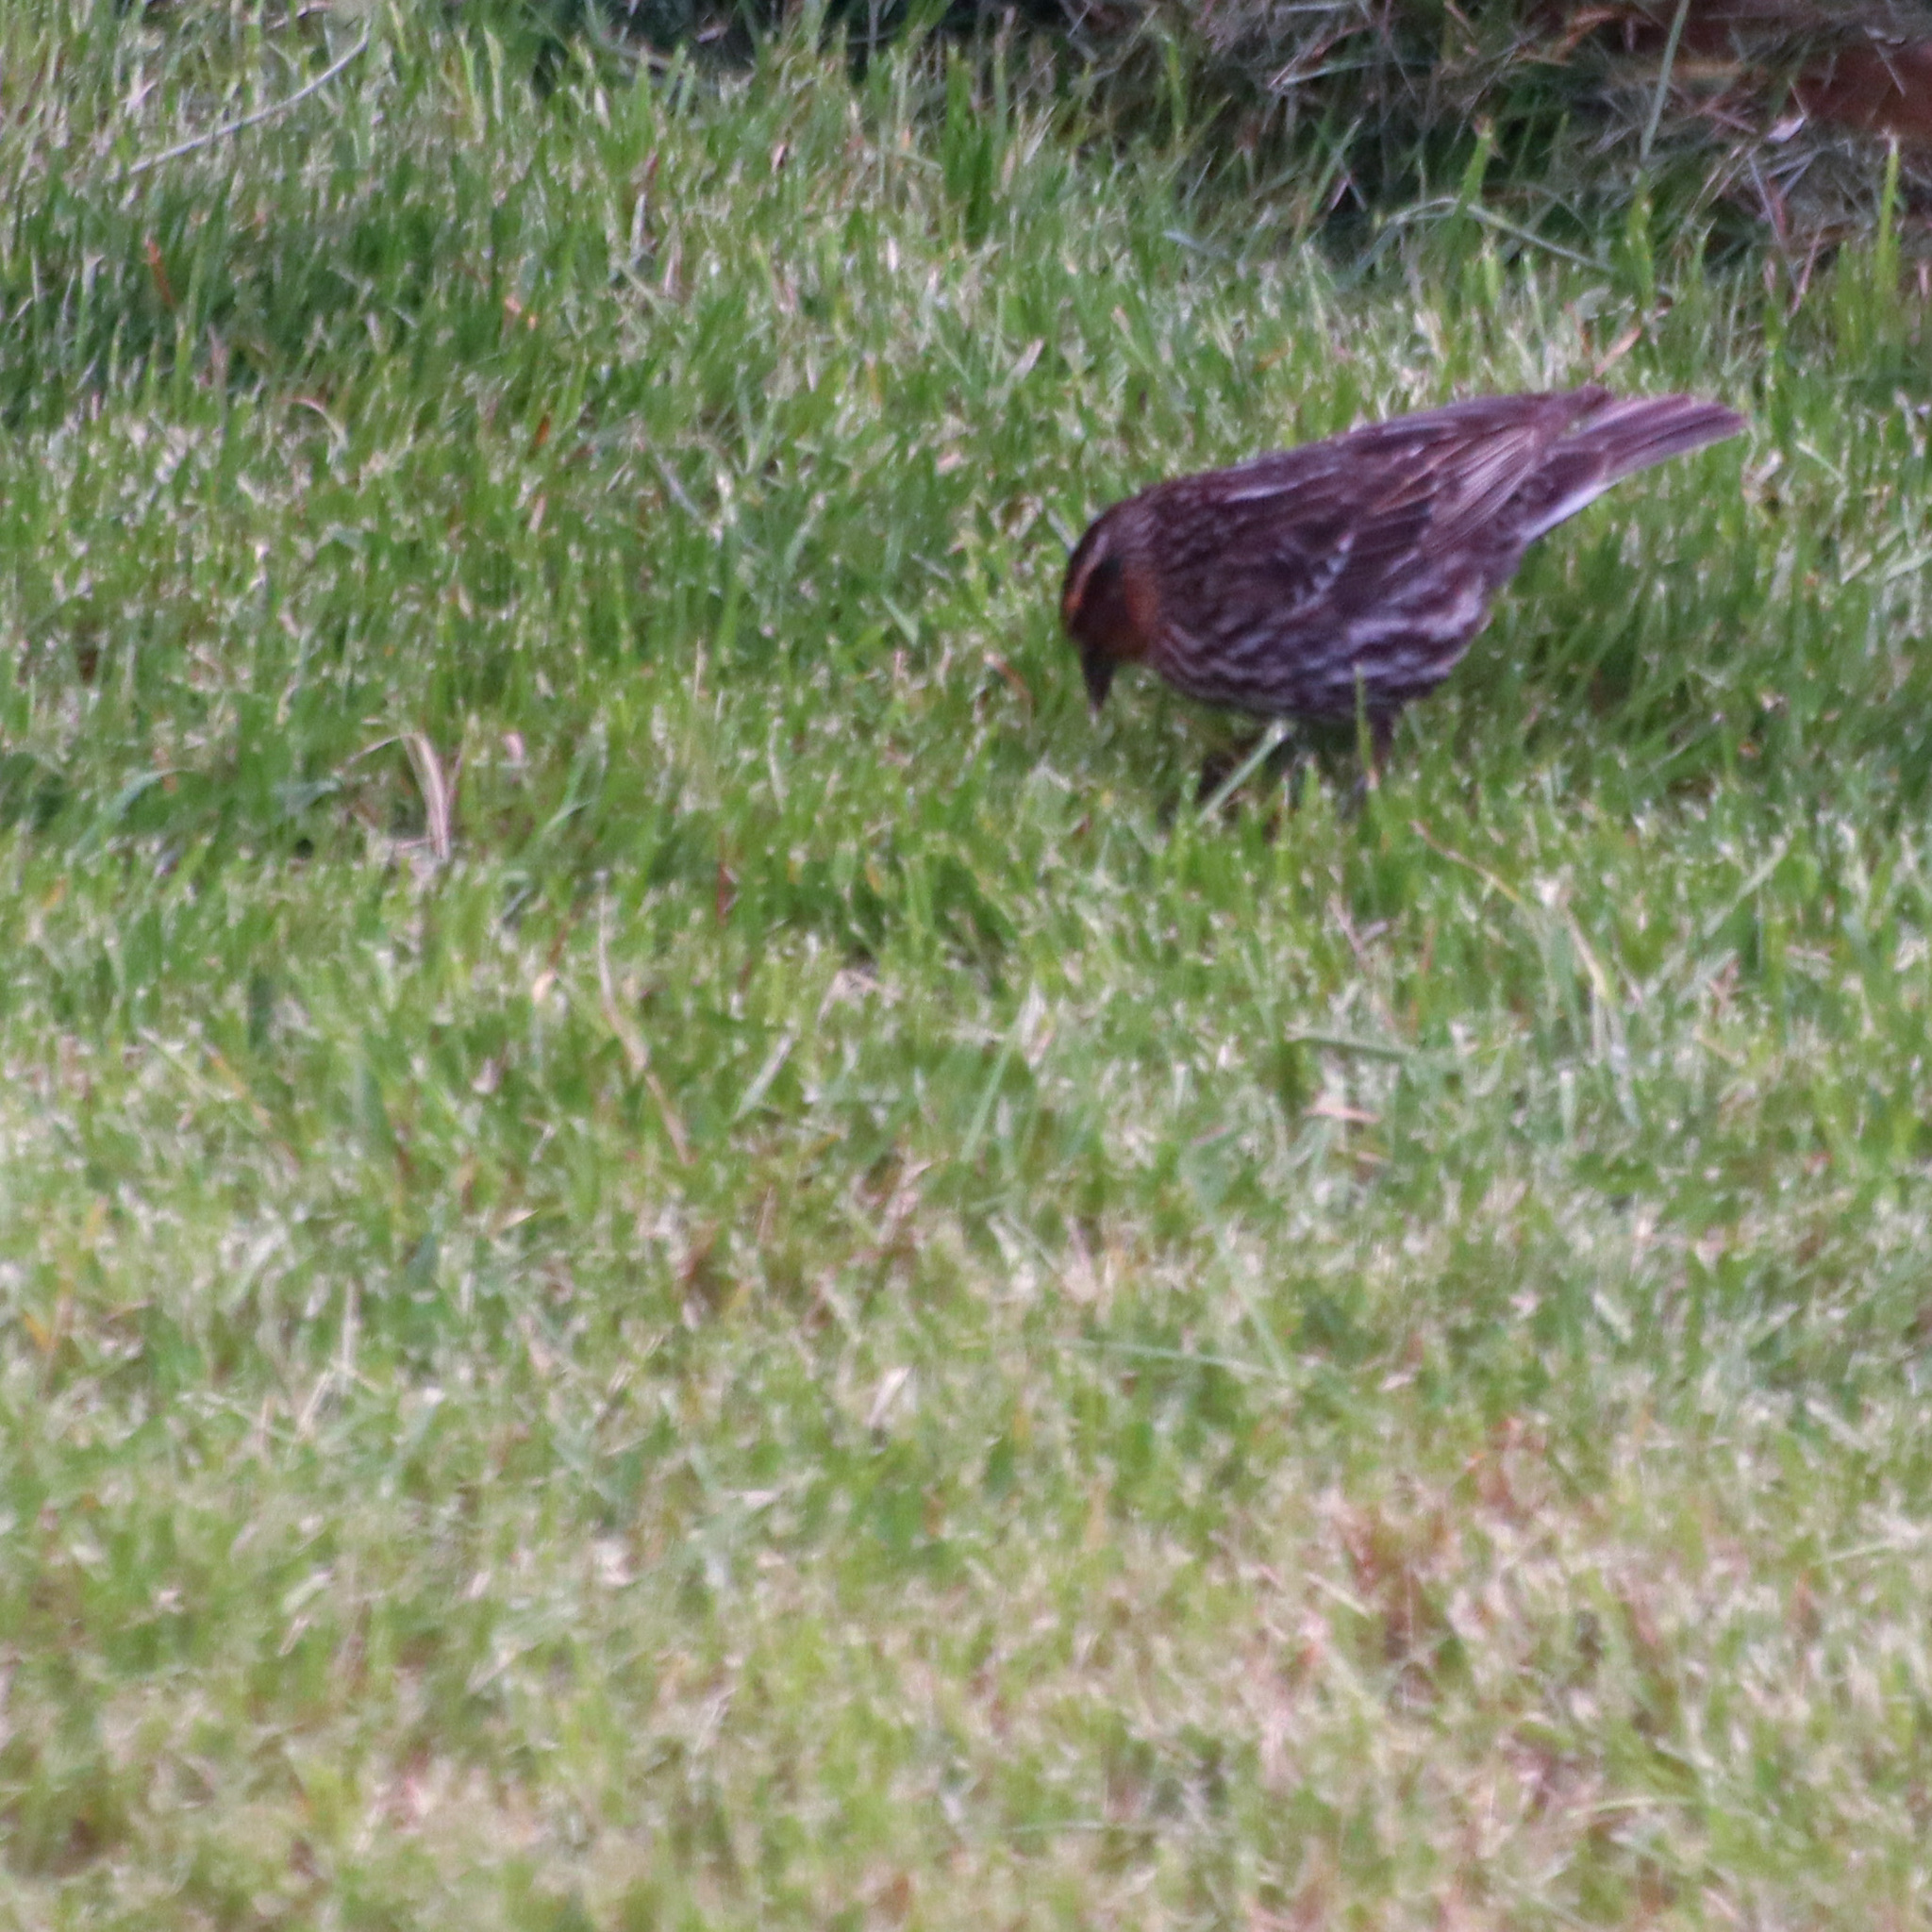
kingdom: Animalia
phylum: Chordata
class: Aves
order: Passeriformes
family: Icteridae
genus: Agelaius
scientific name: Agelaius phoeniceus
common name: Red-winged blackbird
